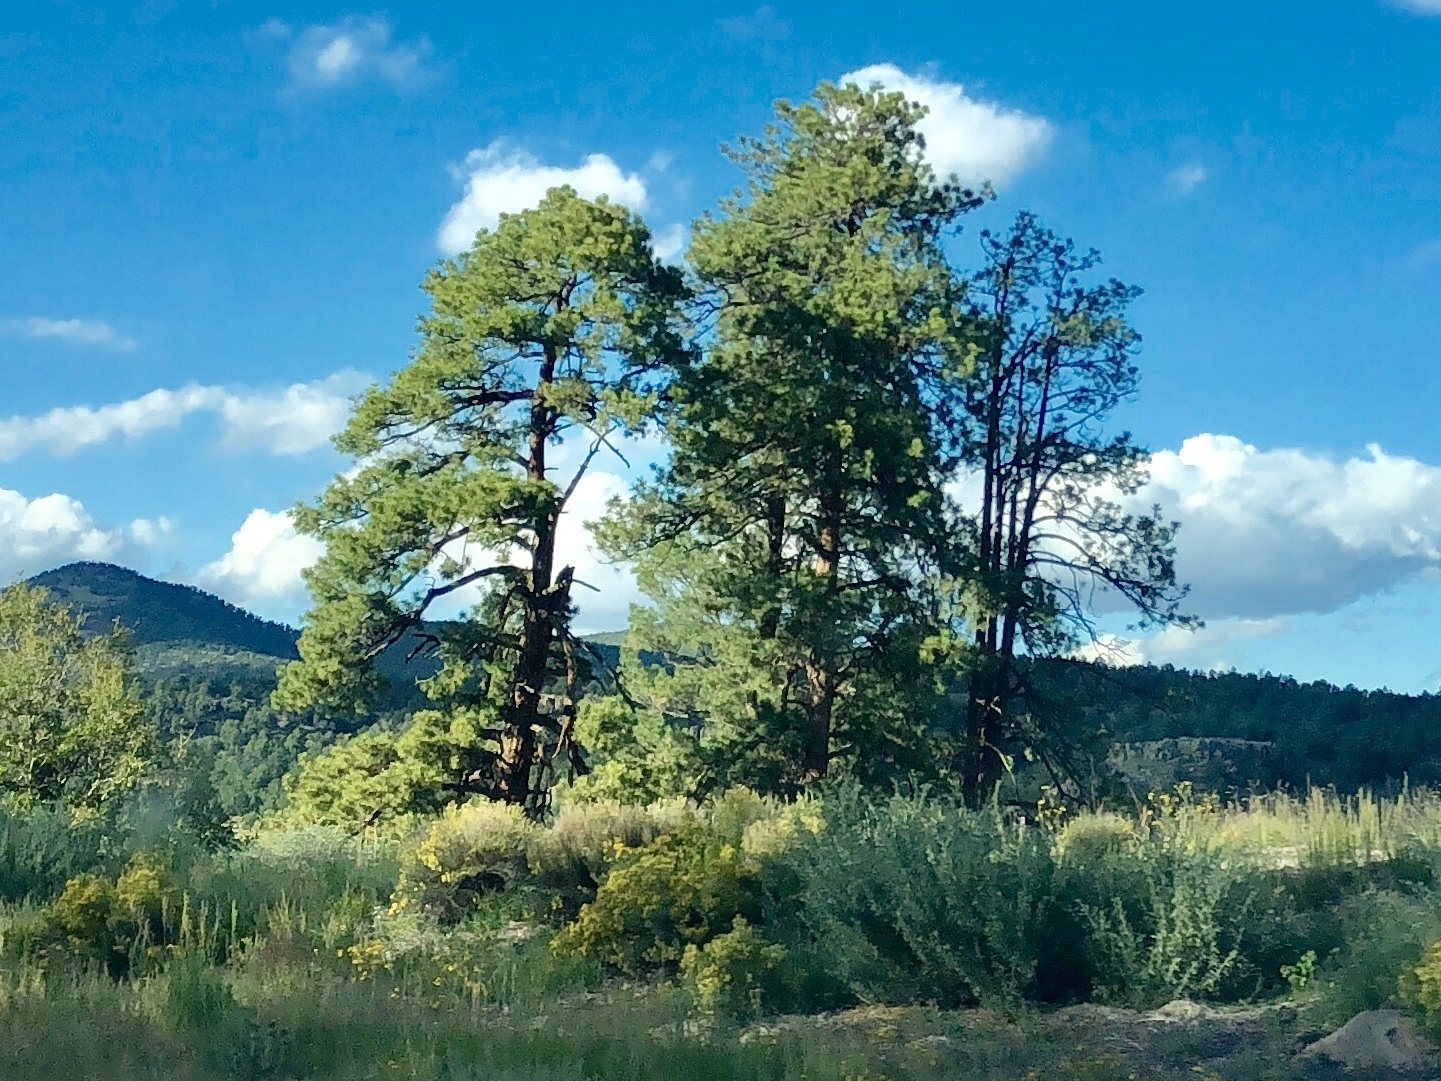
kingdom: Plantae
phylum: Tracheophyta
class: Pinopsida
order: Pinales
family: Pinaceae
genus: Pinus
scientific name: Pinus ponderosa
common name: Western yellow-pine
